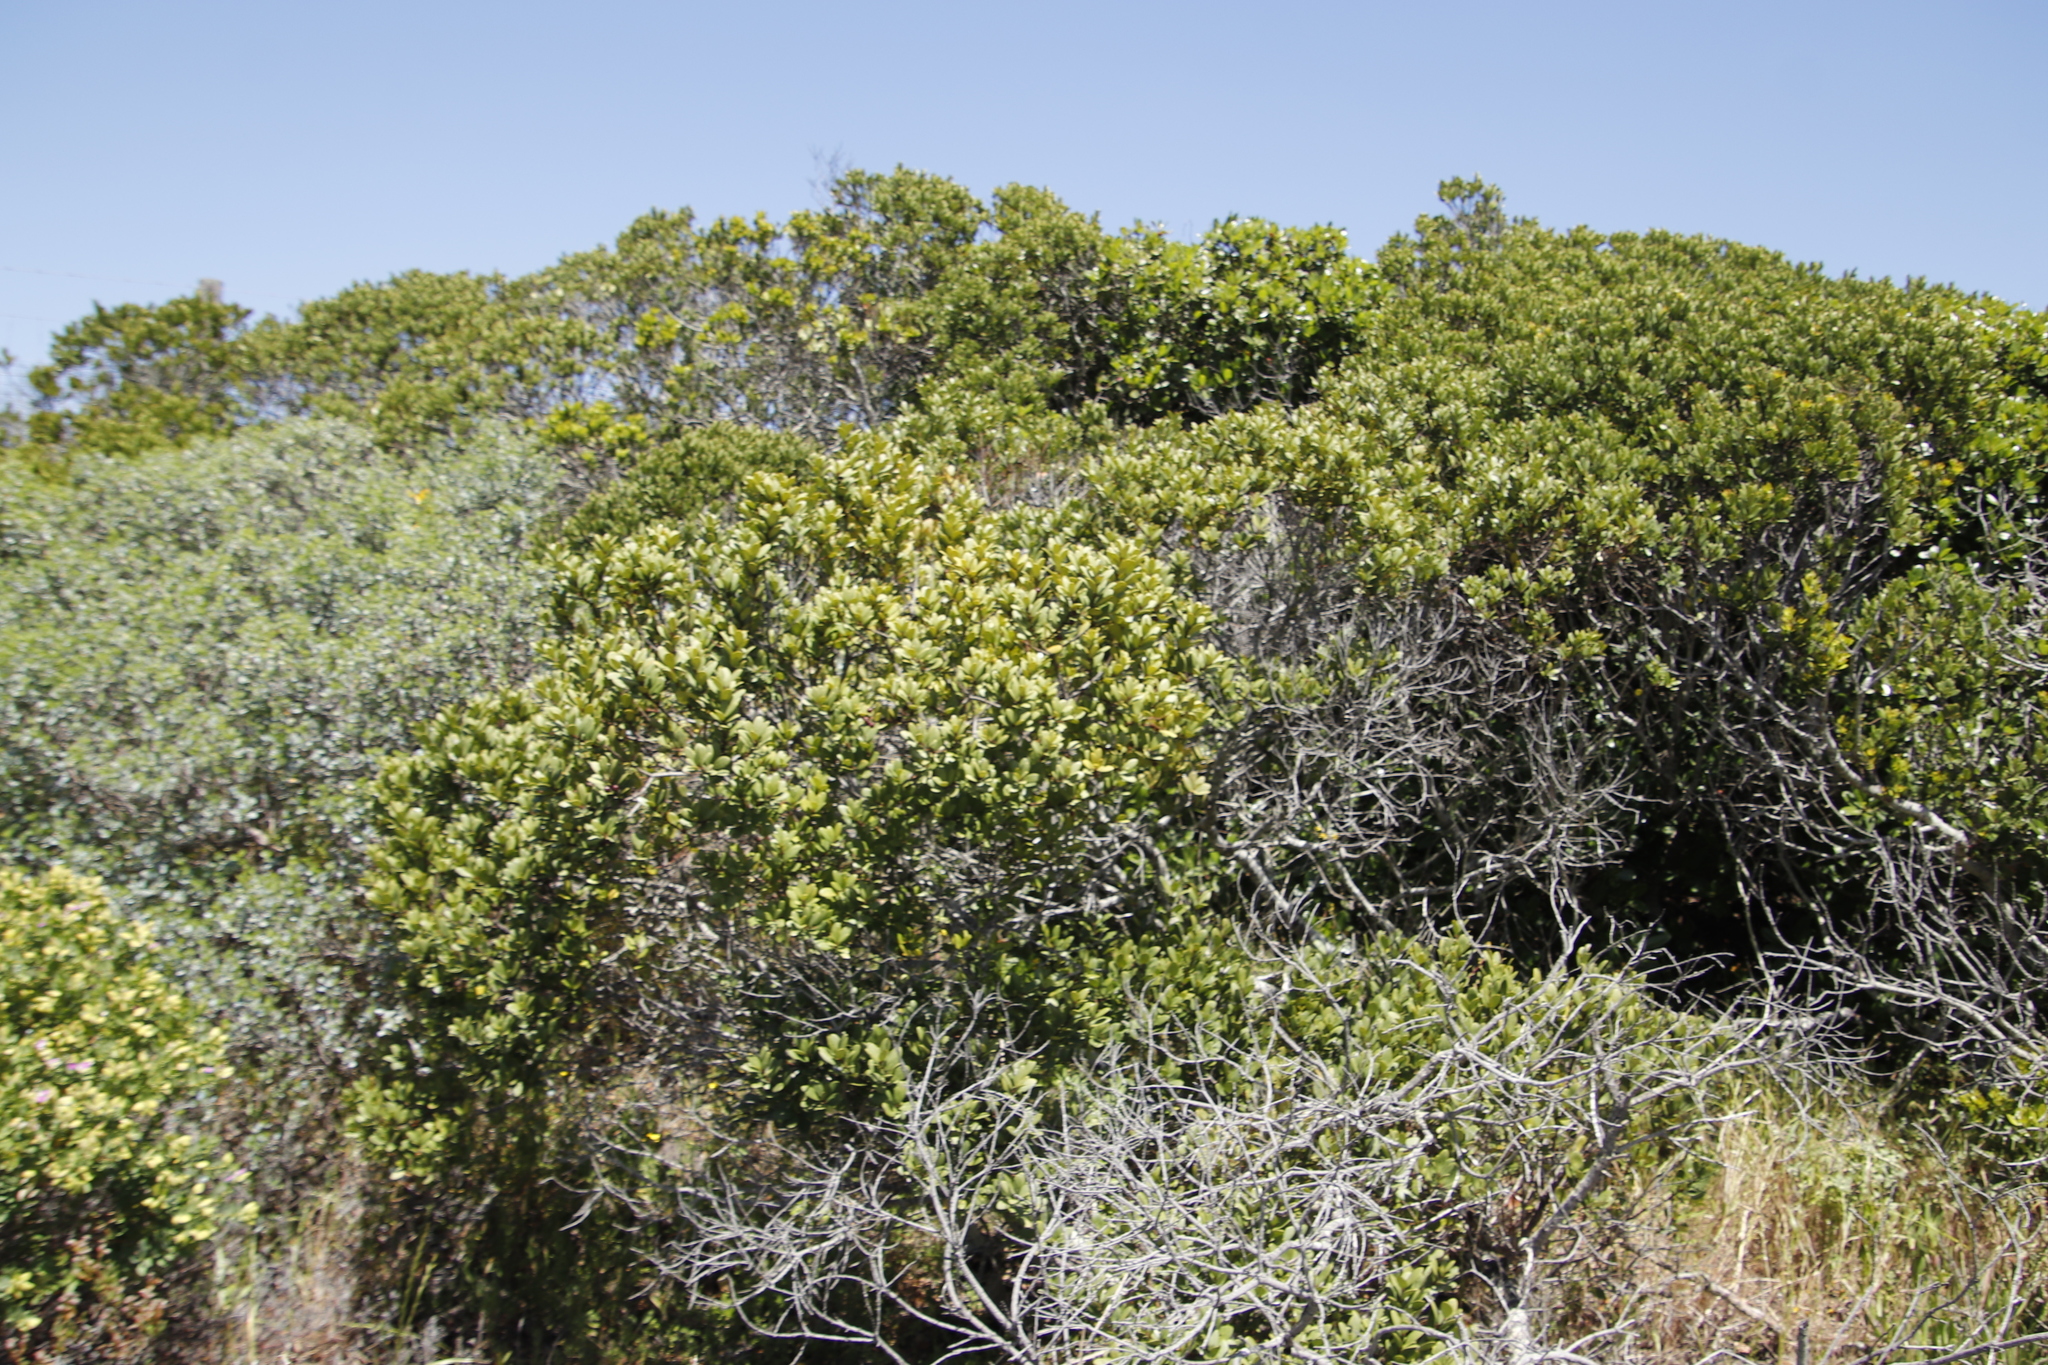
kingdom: Plantae
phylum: Tracheophyta
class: Magnoliopsida
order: Ericales
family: Ebenaceae
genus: Euclea
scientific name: Euclea racemosa
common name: Dune guarri
